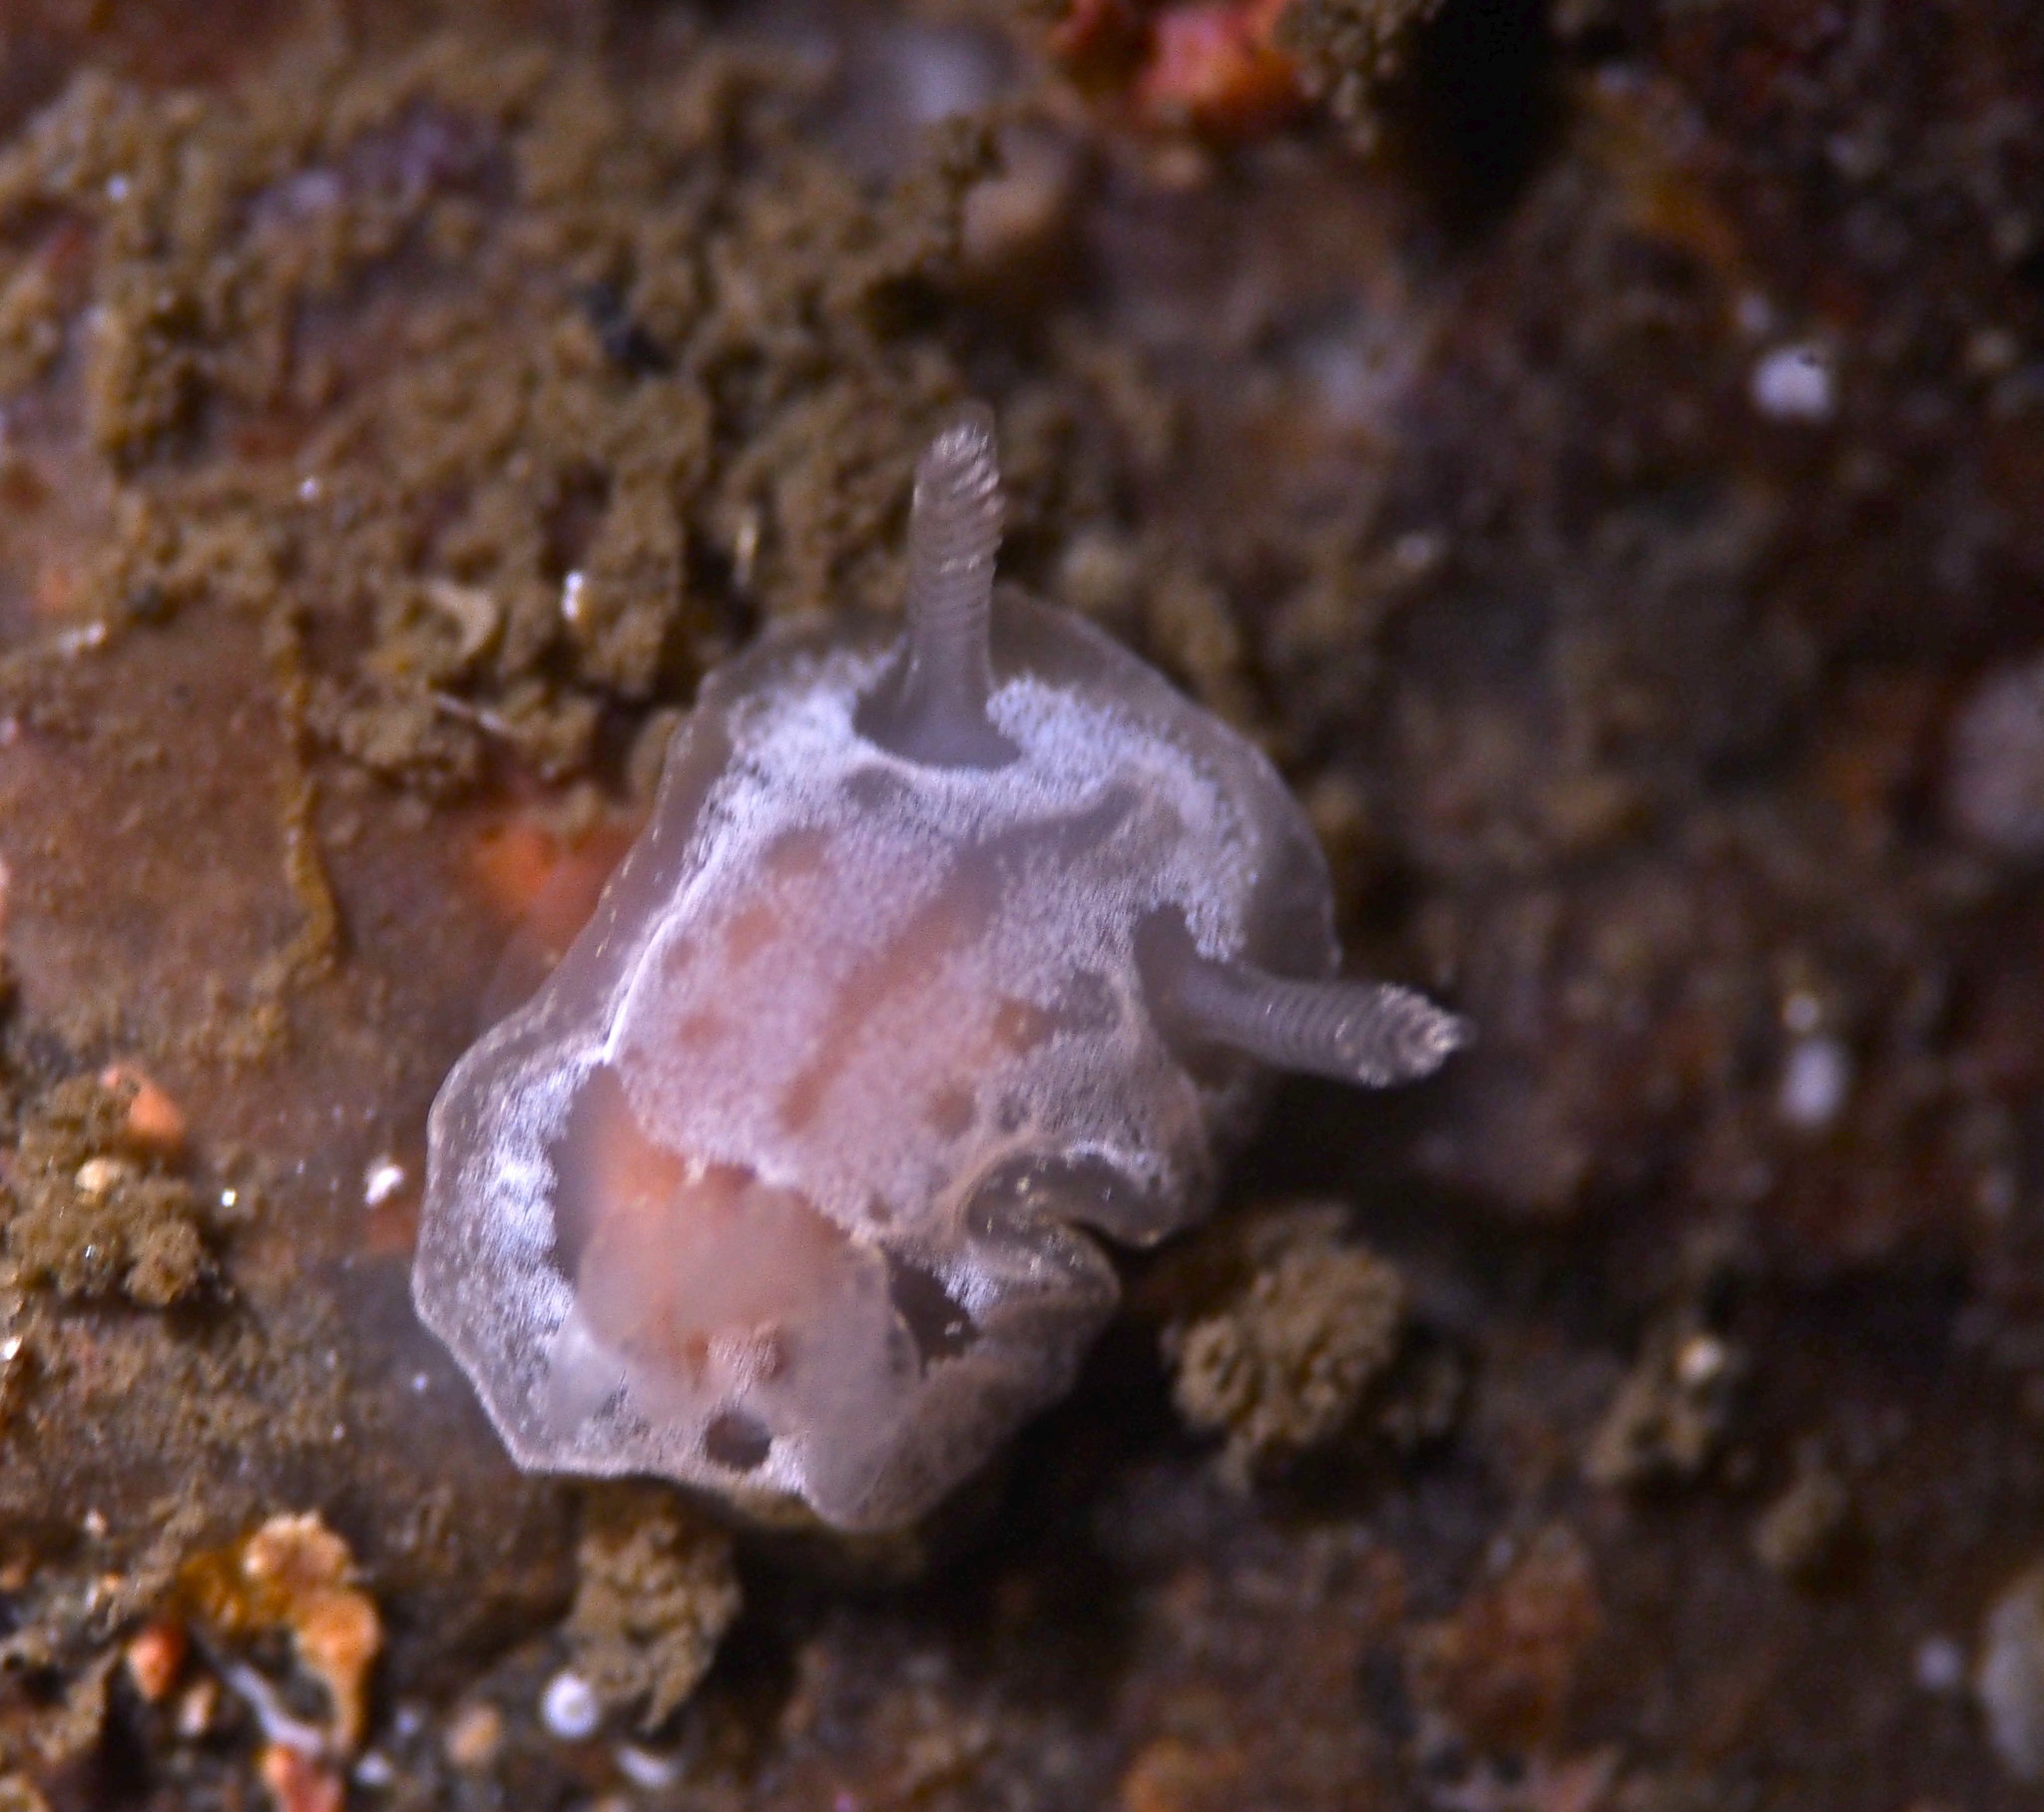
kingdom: Animalia
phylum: Mollusca
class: Gastropoda
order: Nudibranchia
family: Goniodorididae
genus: Okenia
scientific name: Okenia
